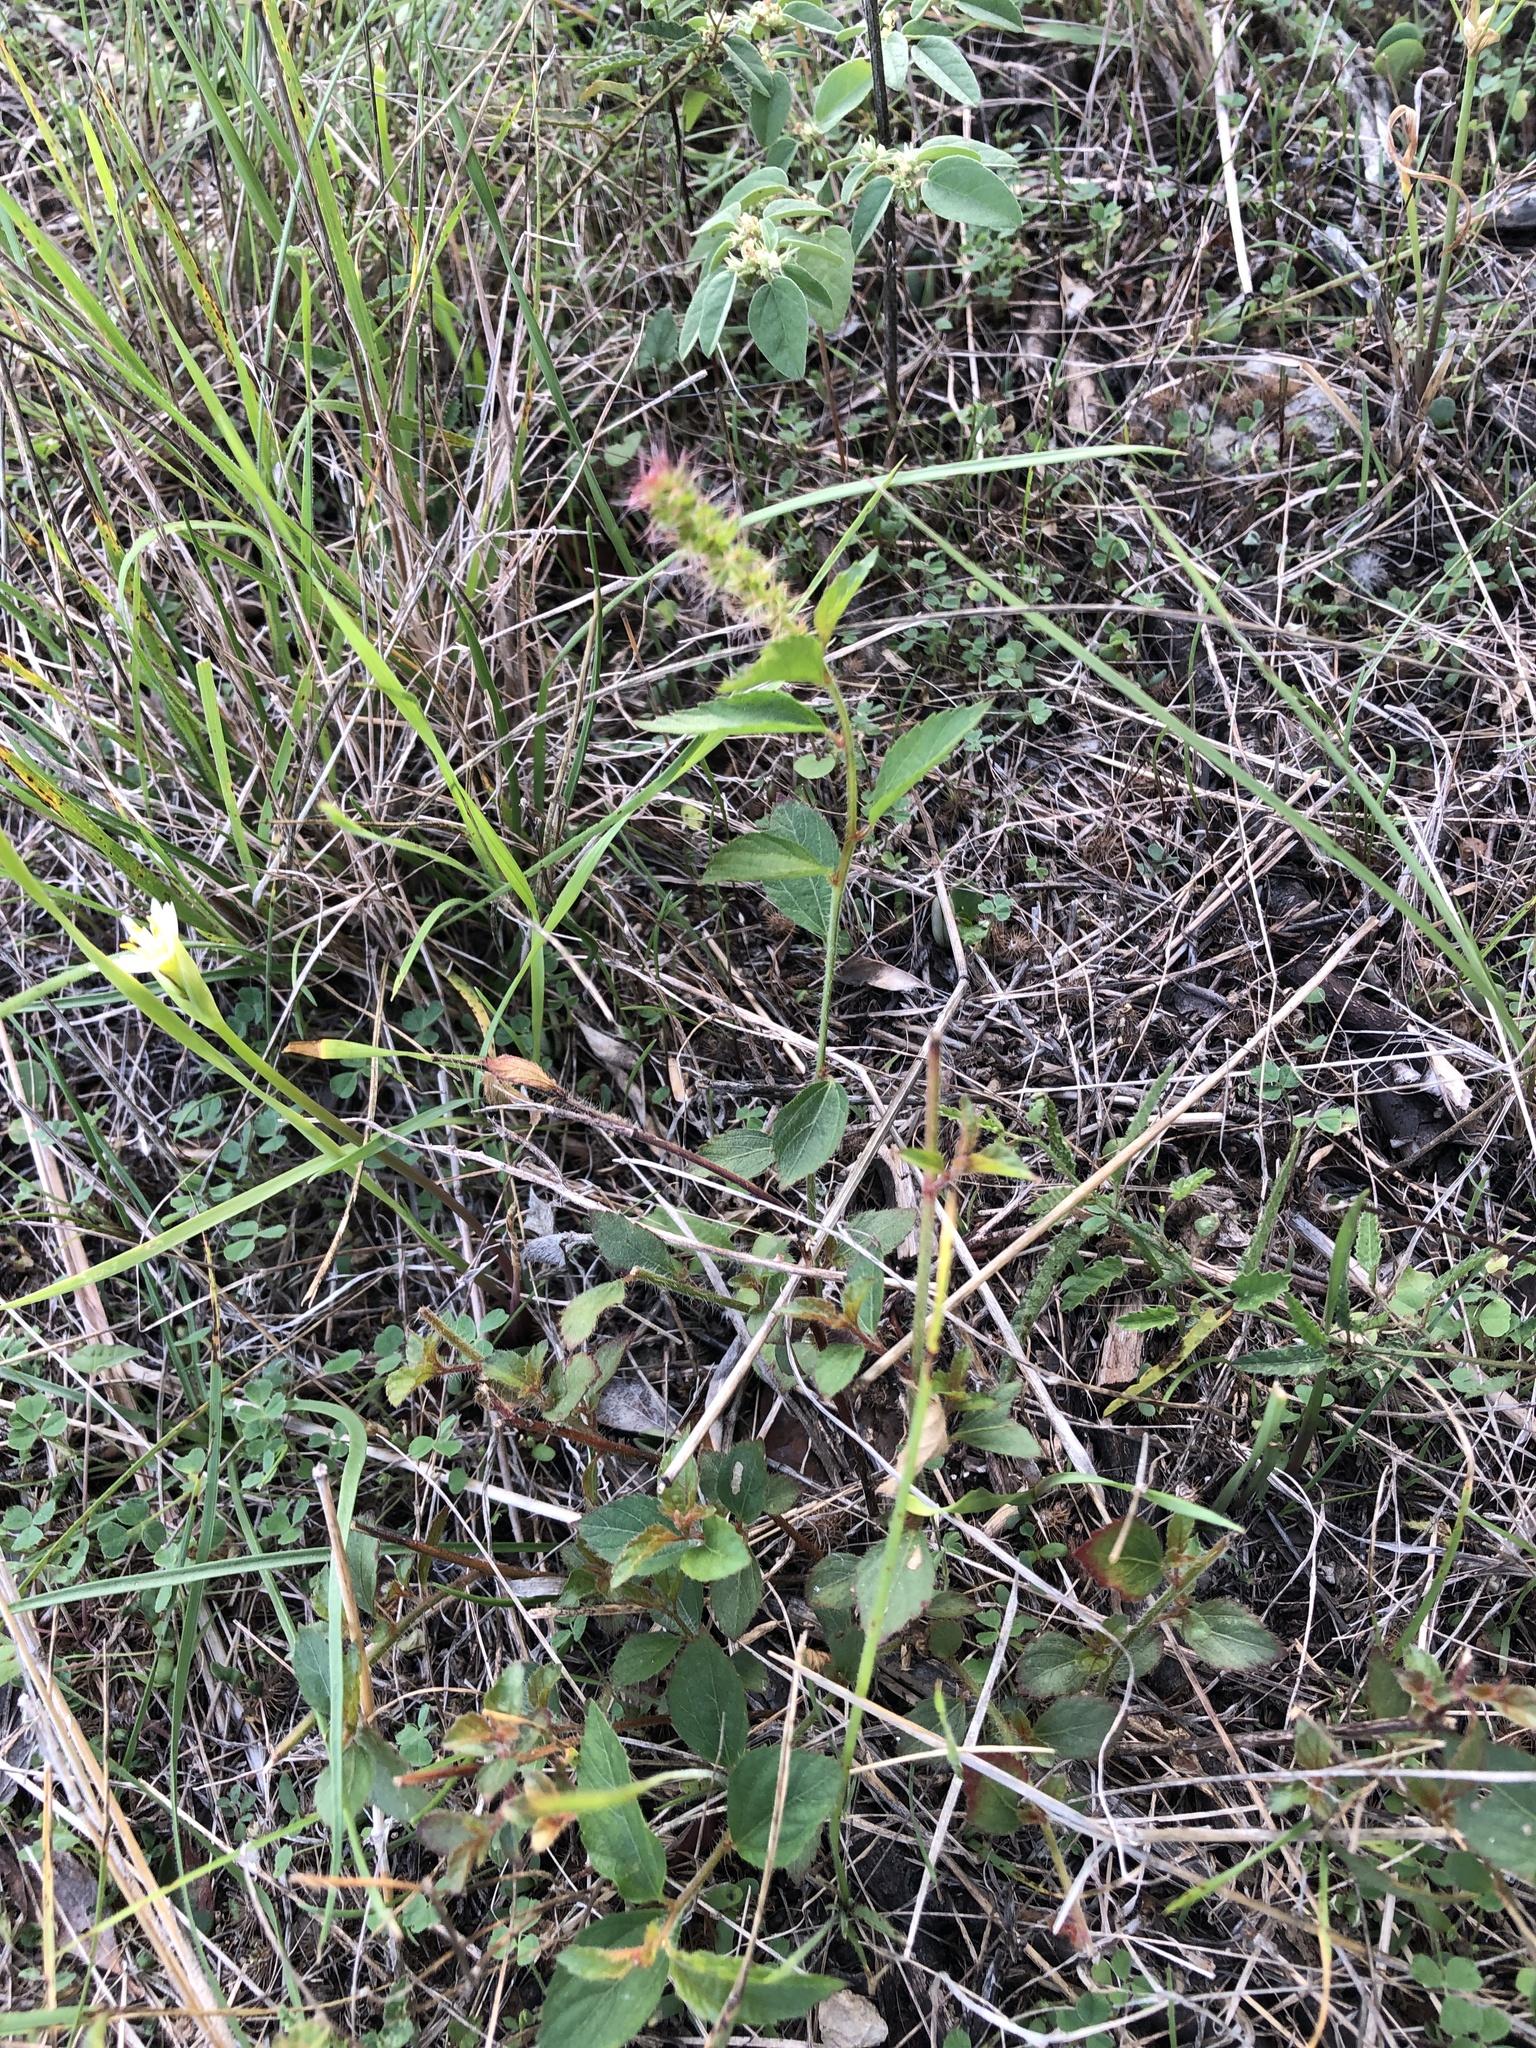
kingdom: Plantae
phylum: Tracheophyta
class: Magnoliopsida
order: Malpighiales
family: Euphorbiaceae
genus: Acalypha
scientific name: Acalypha phleoides
